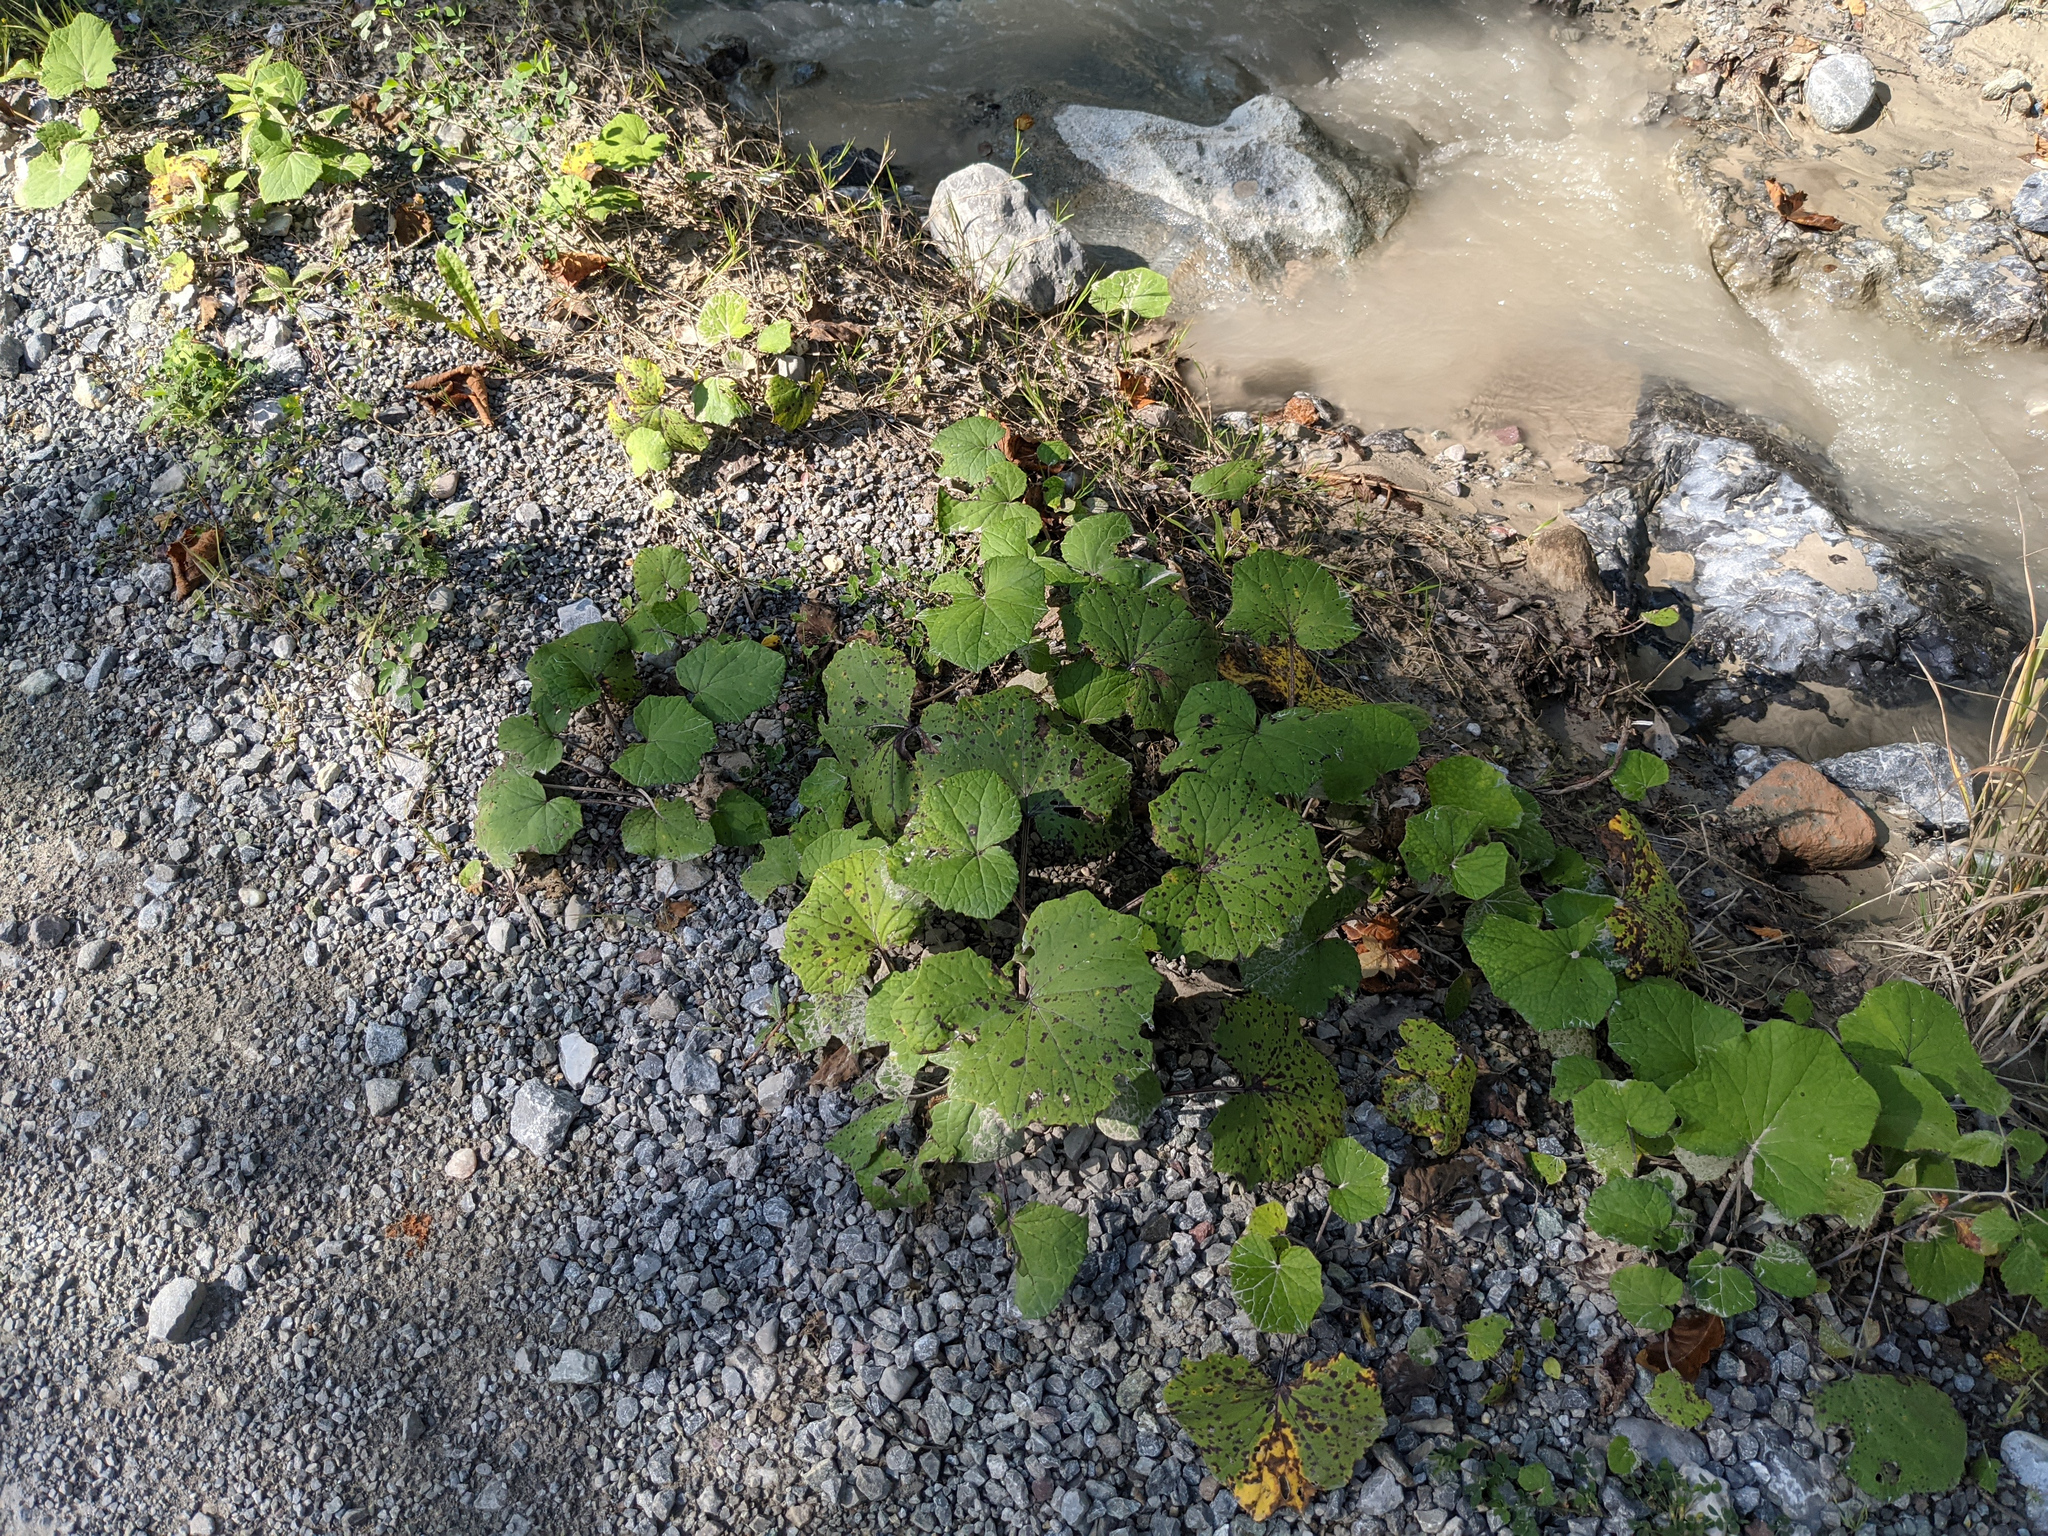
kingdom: Plantae
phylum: Tracheophyta
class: Magnoliopsida
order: Asterales
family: Asteraceae
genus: Tussilago
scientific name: Tussilago farfara
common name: Coltsfoot
